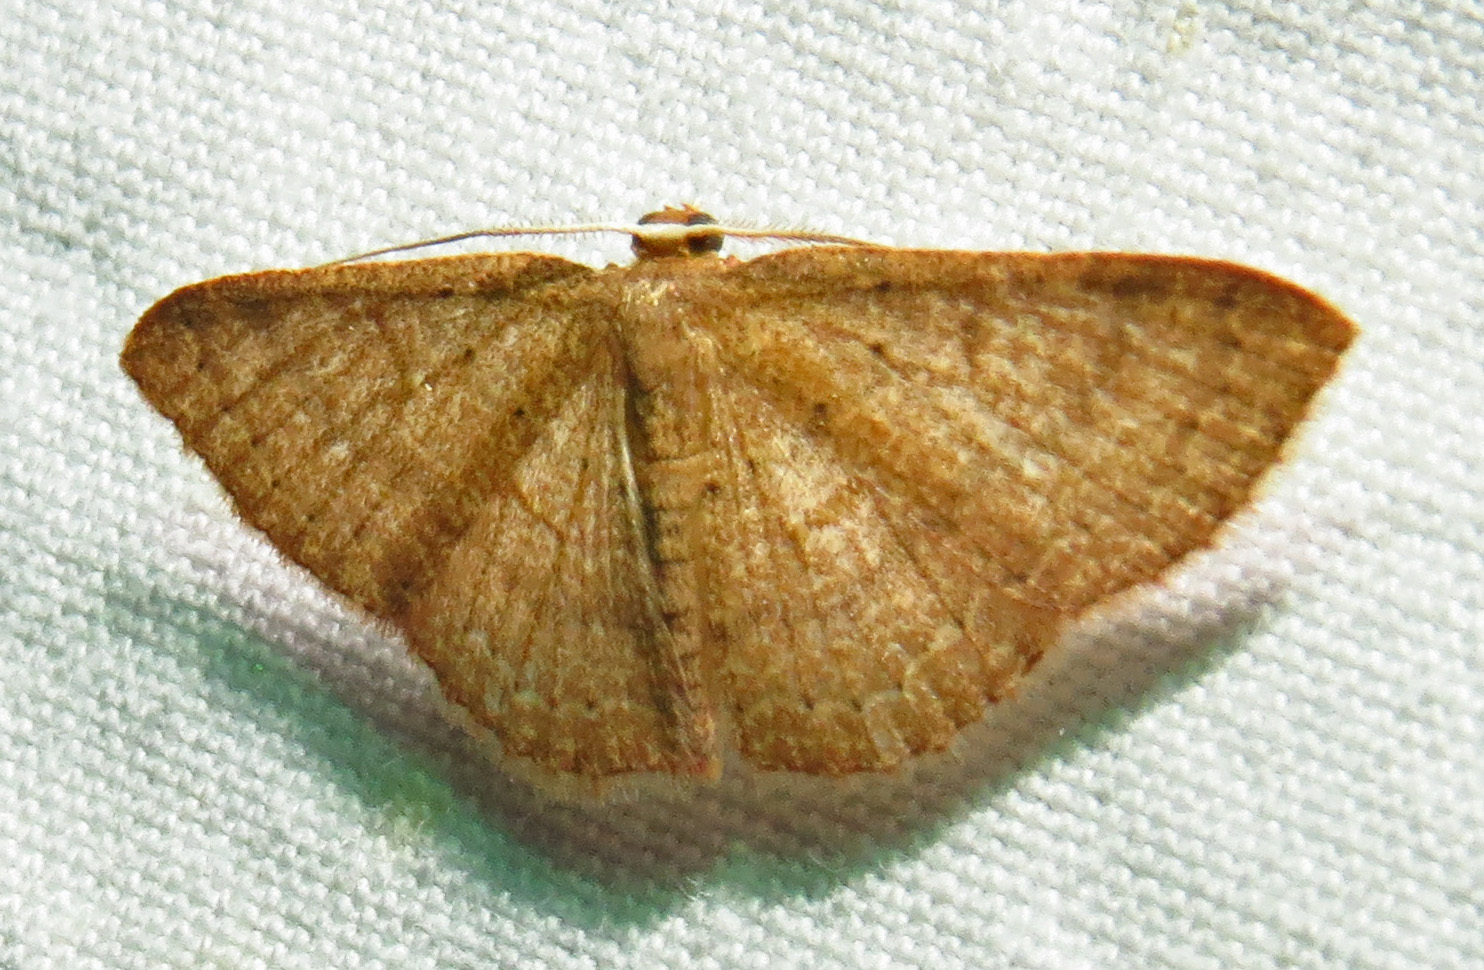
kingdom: Animalia
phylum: Arthropoda
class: Insecta
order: Lepidoptera
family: Geometridae
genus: Pleuroprucha
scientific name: Pleuroprucha insulsaria
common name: Common tan wave
